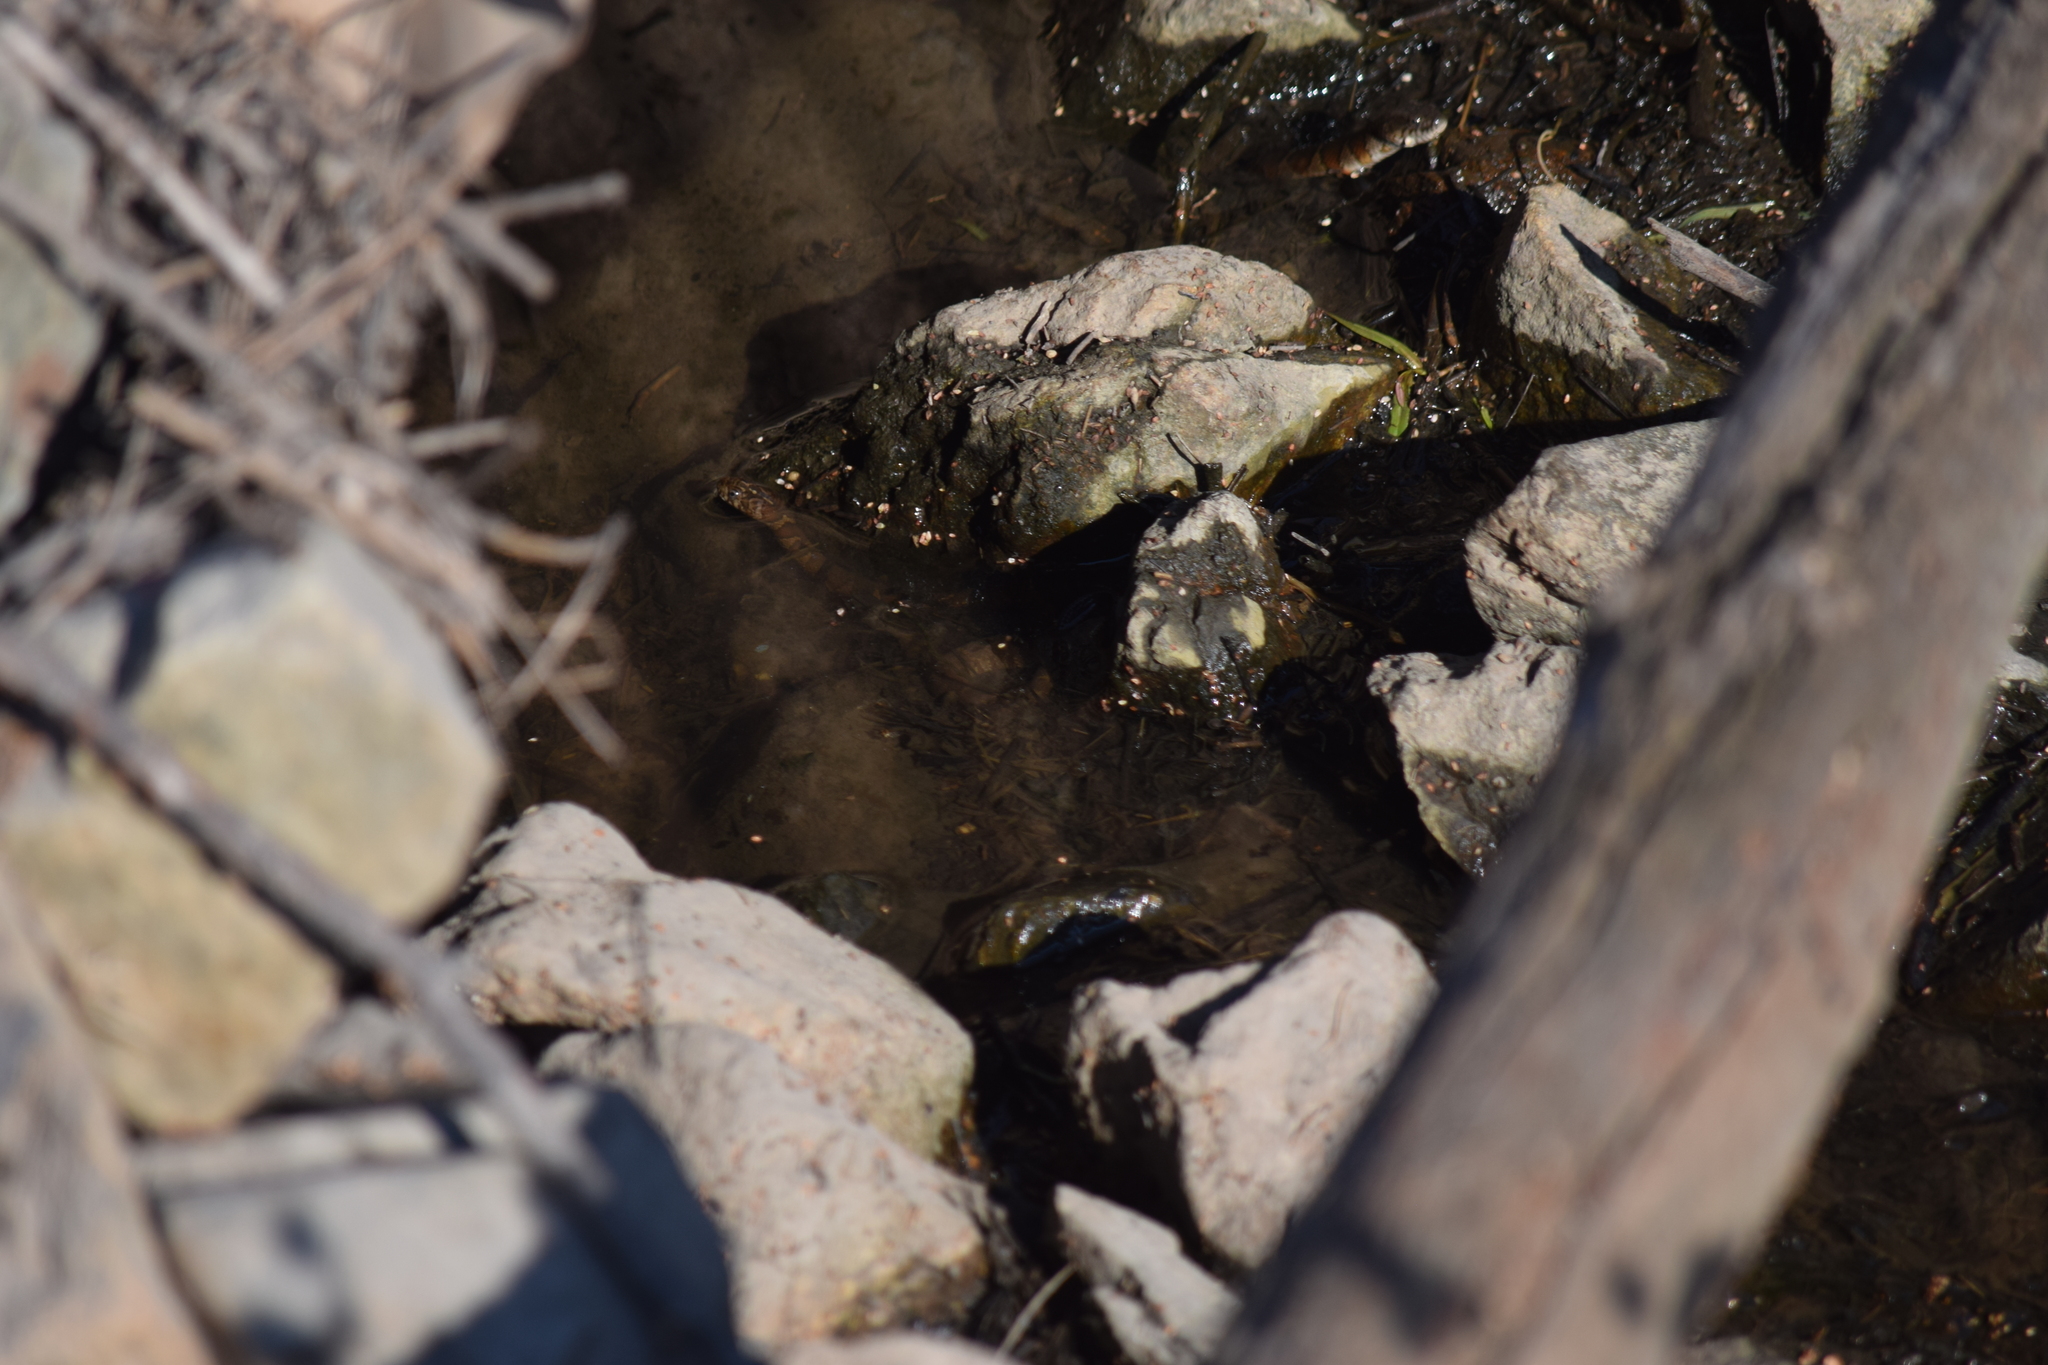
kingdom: Animalia
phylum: Chordata
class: Squamata
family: Colubridae
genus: Nerodia
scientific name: Nerodia sipedon
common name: Northern water snake
